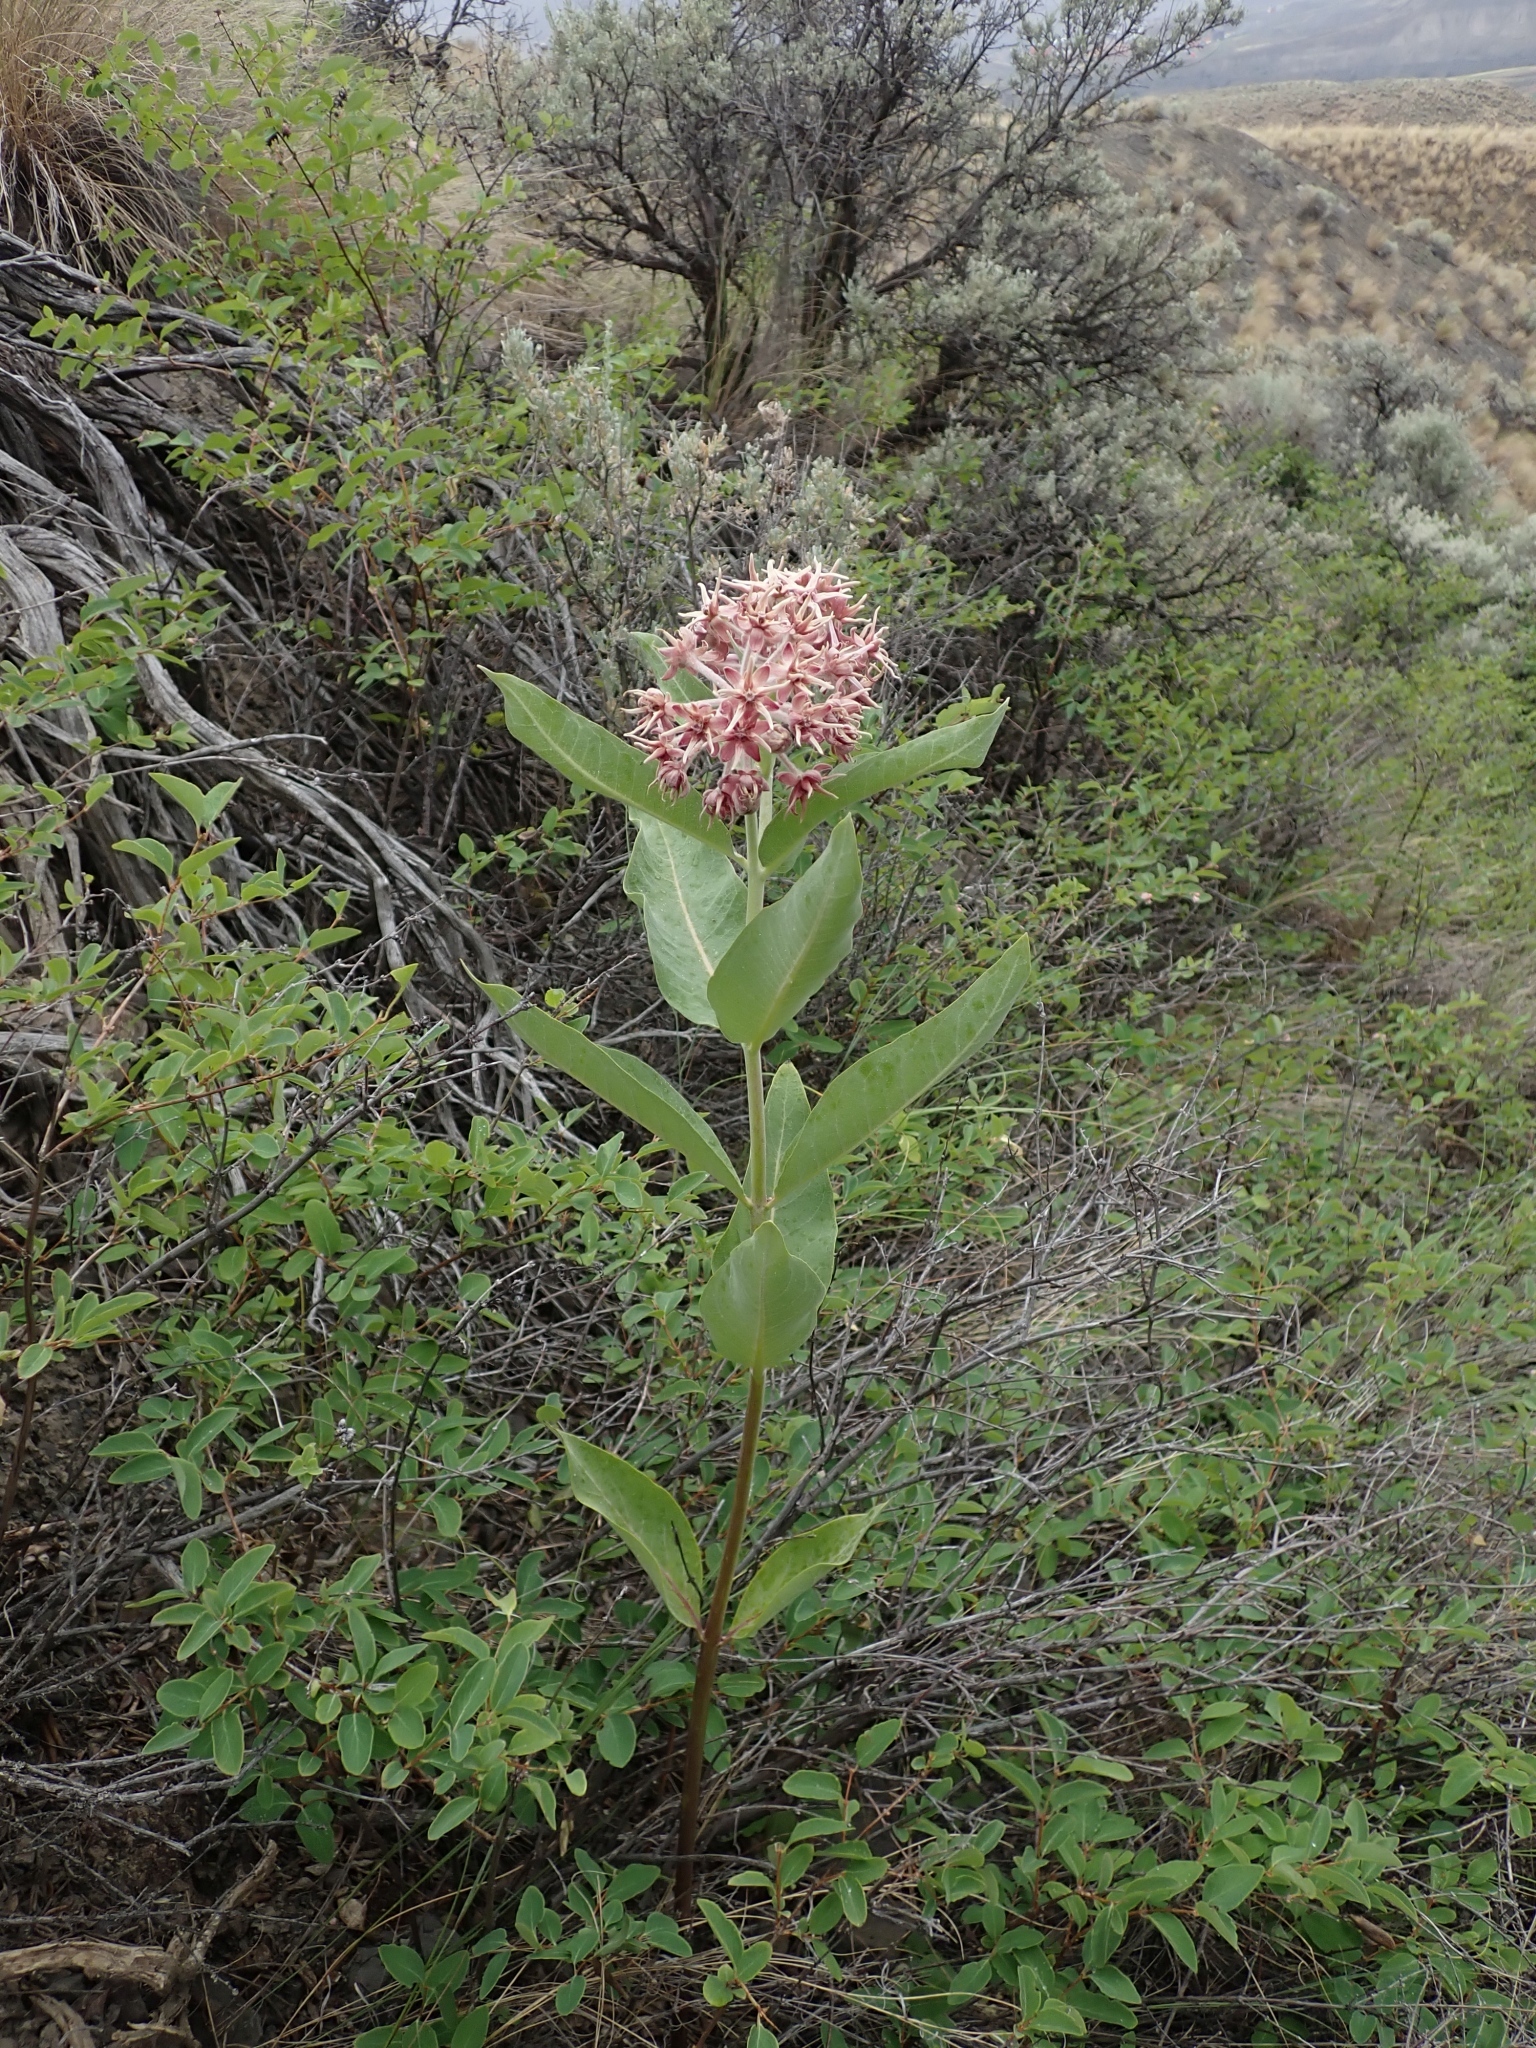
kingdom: Plantae
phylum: Tracheophyta
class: Magnoliopsida
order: Gentianales
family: Apocynaceae
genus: Asclepias
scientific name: Asclepias speciosa
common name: Showy milkweed
